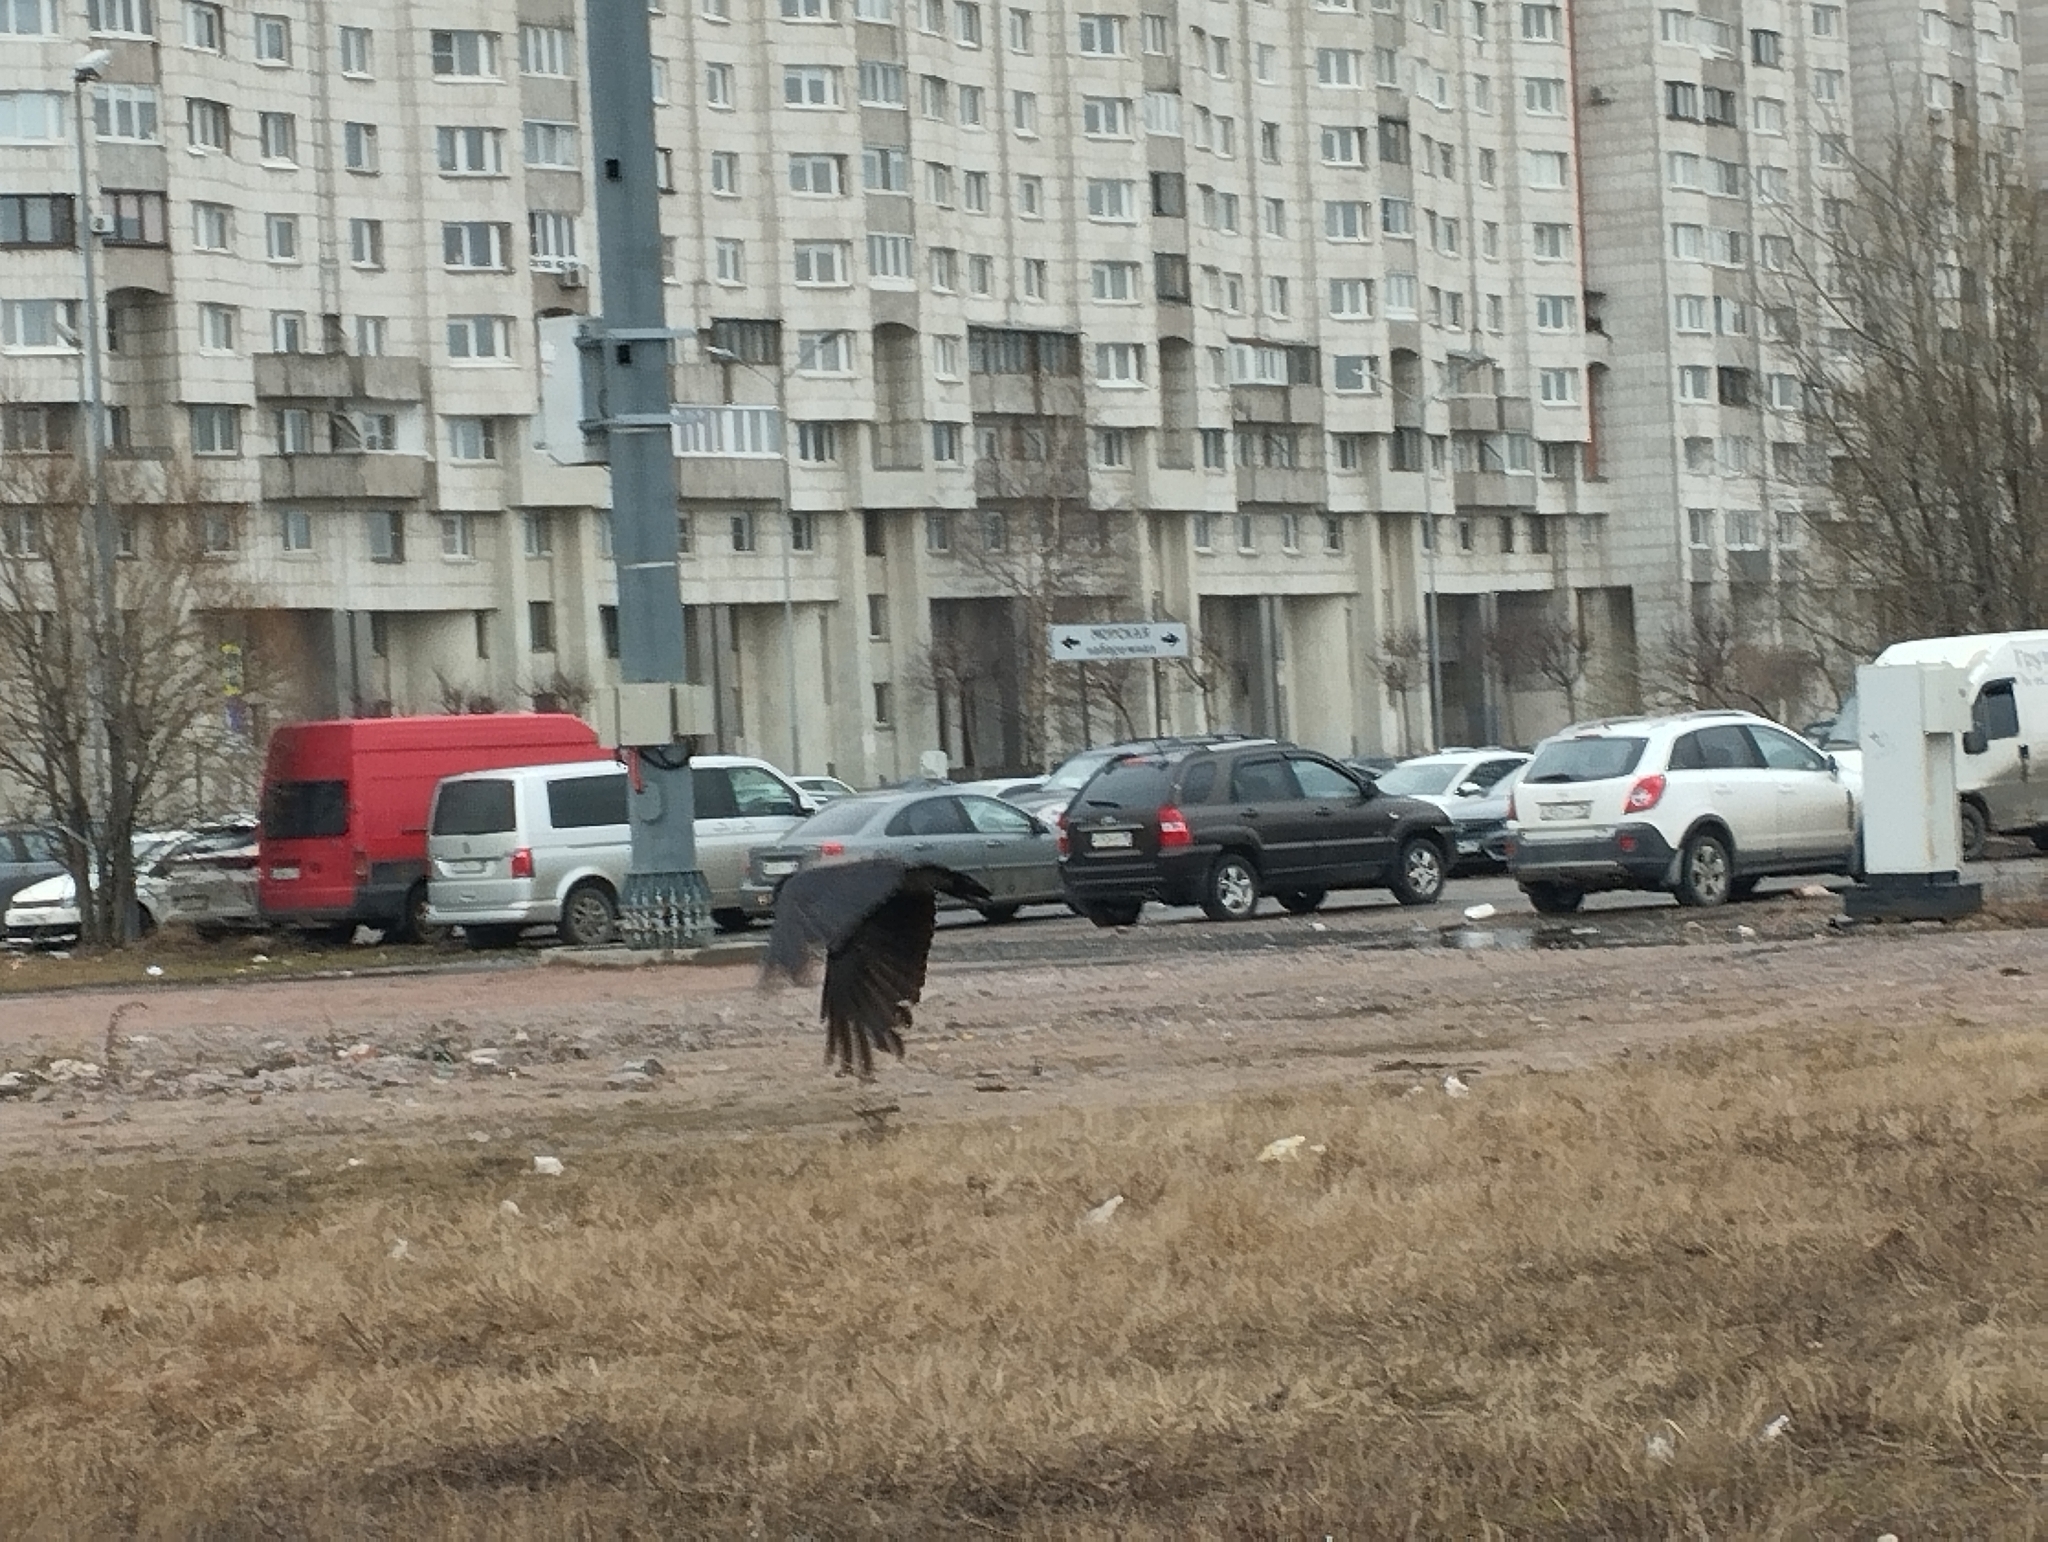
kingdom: Animalia
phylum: Chordata
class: Aves
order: Passeriformes
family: Corvidae
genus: Corvus
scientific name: Corvus cornix
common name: Hooded crow
